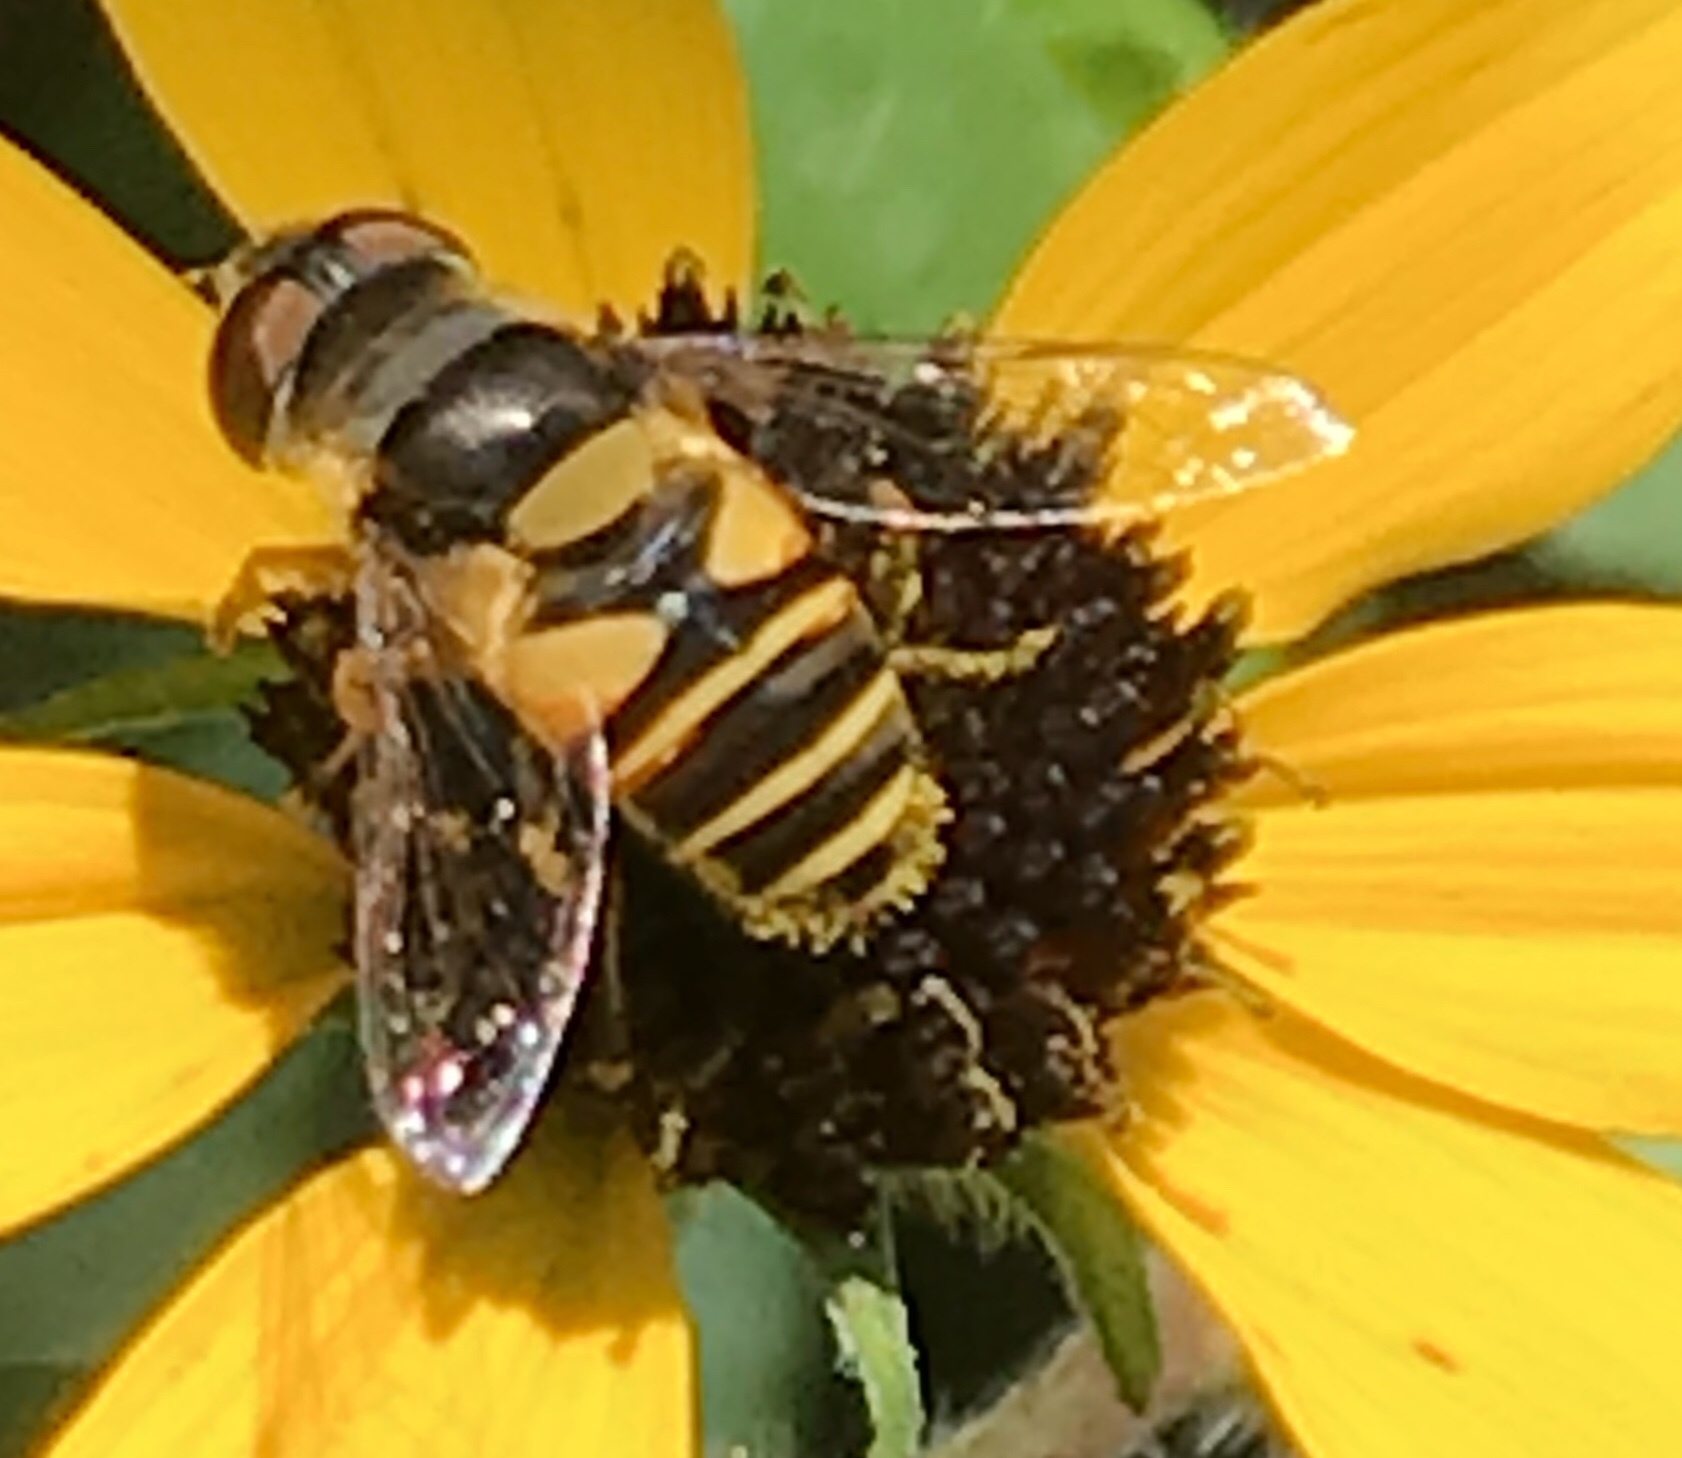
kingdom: Animalia
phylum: Arthropoda
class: Insecta
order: Diptera
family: Syrphidae
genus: Eristalis
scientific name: Eristalis transversa
